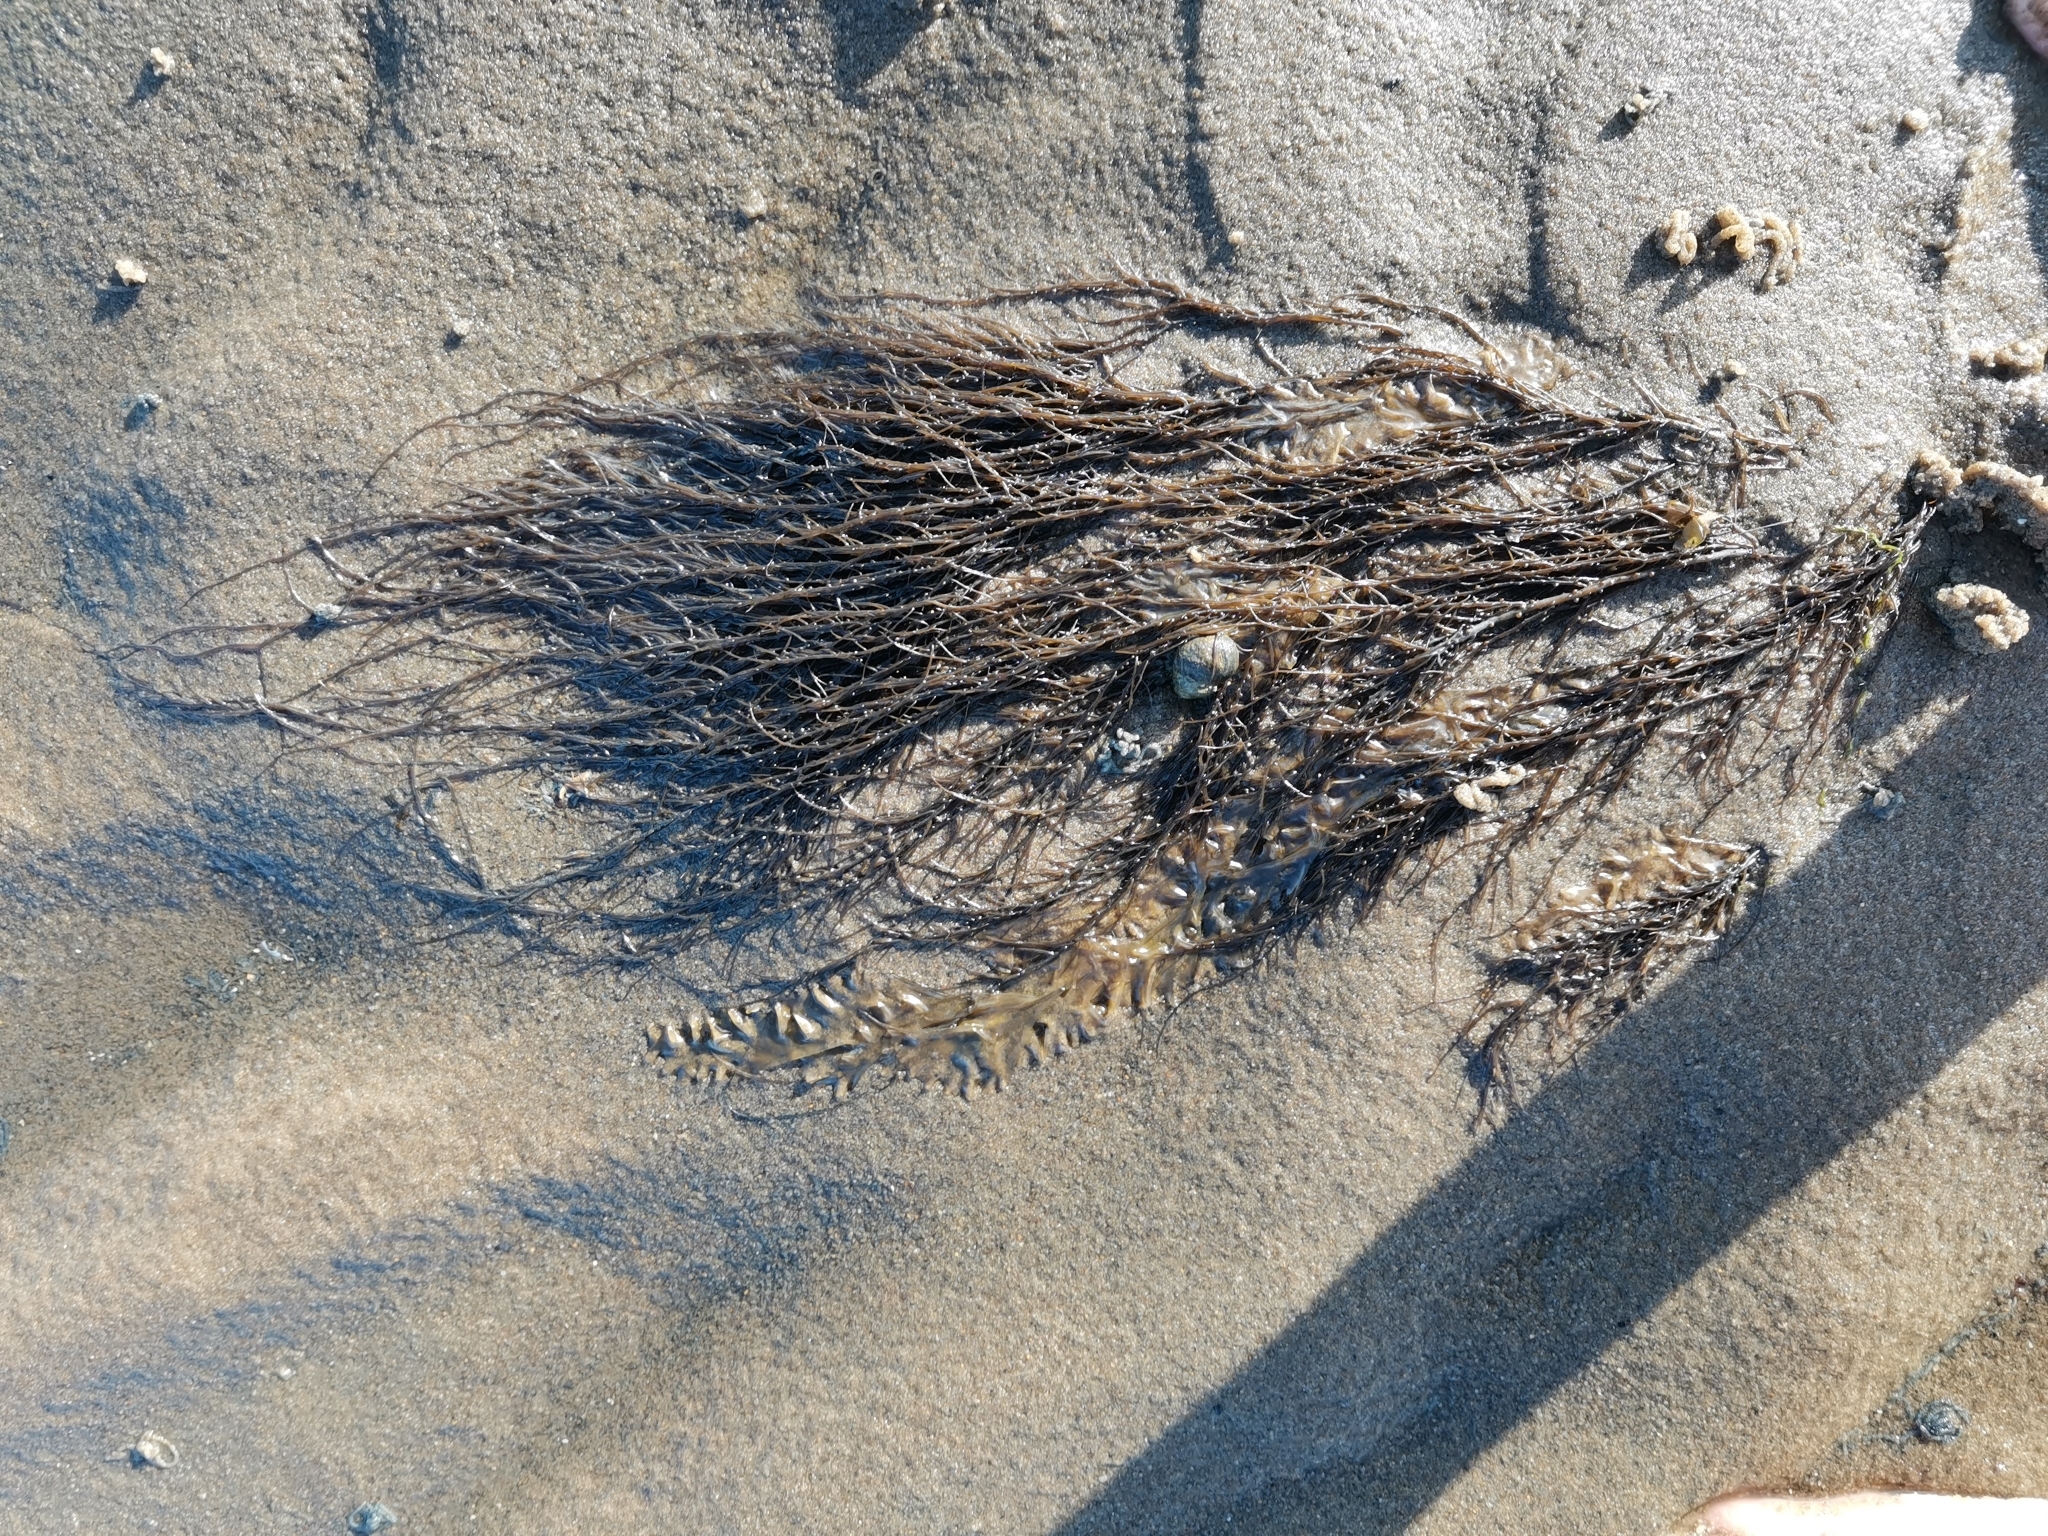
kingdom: Chromista
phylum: Ochrophyta
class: Phaeophyceae
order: Fucales
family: Sargassaceae
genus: Sargassum
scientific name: Sargassum muticum
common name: Japweed
